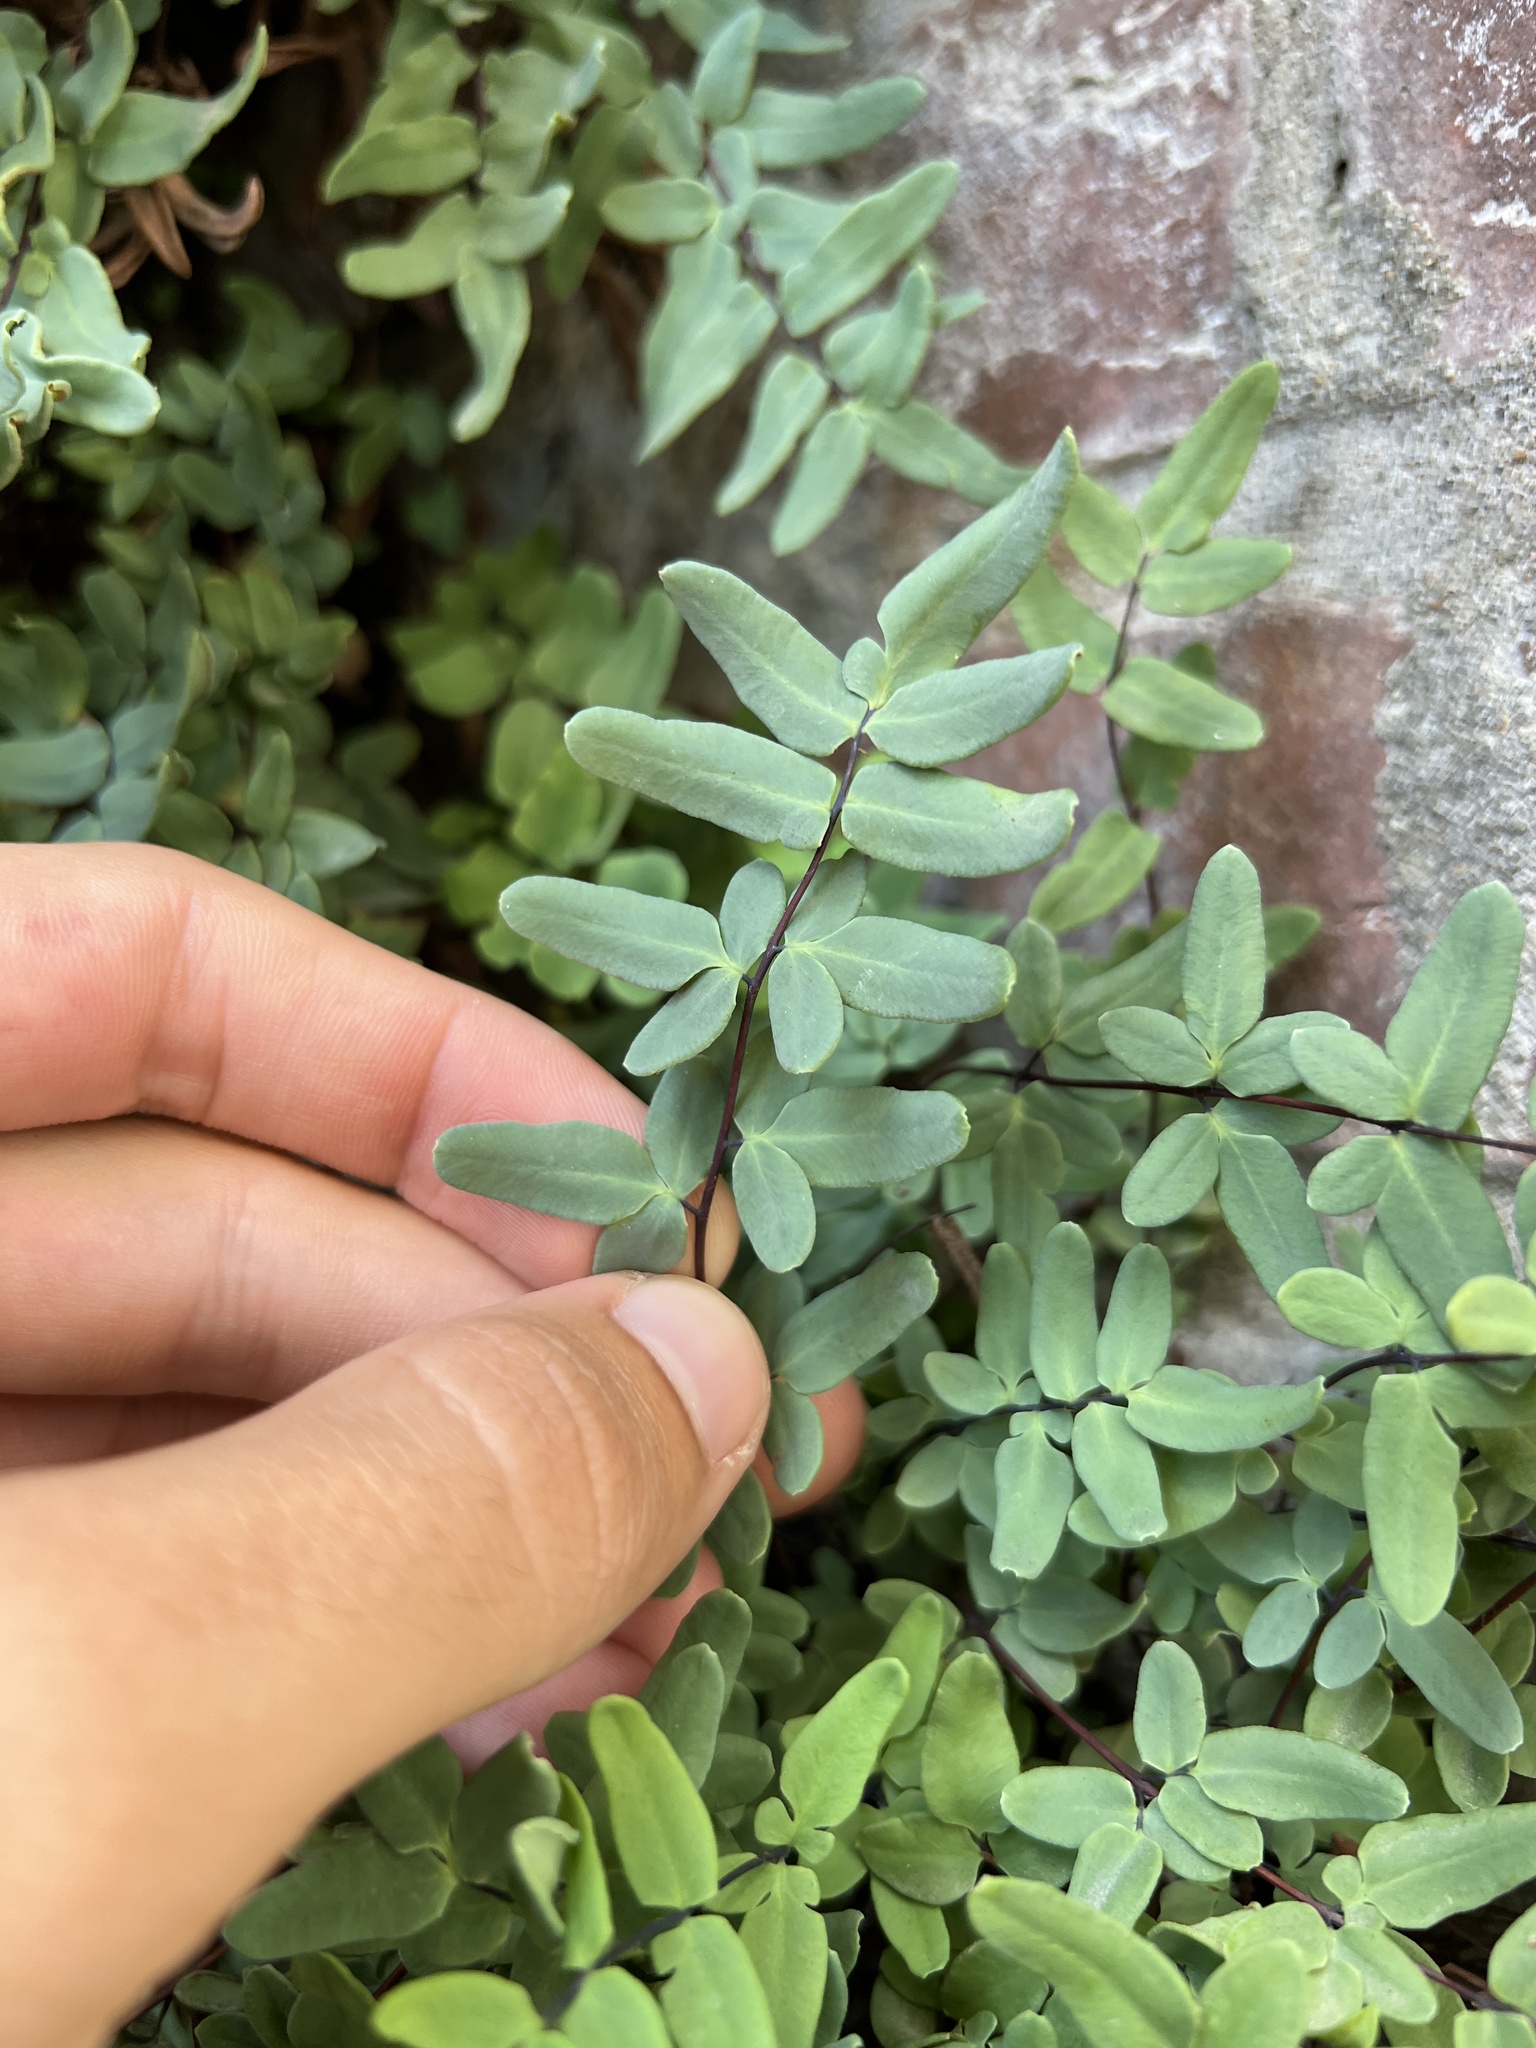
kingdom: Plantae
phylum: Tracheophyta
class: Polypodiopsida
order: Polypodiales
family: Pteridaceae
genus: Pellaea
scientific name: Pellaea glabella
